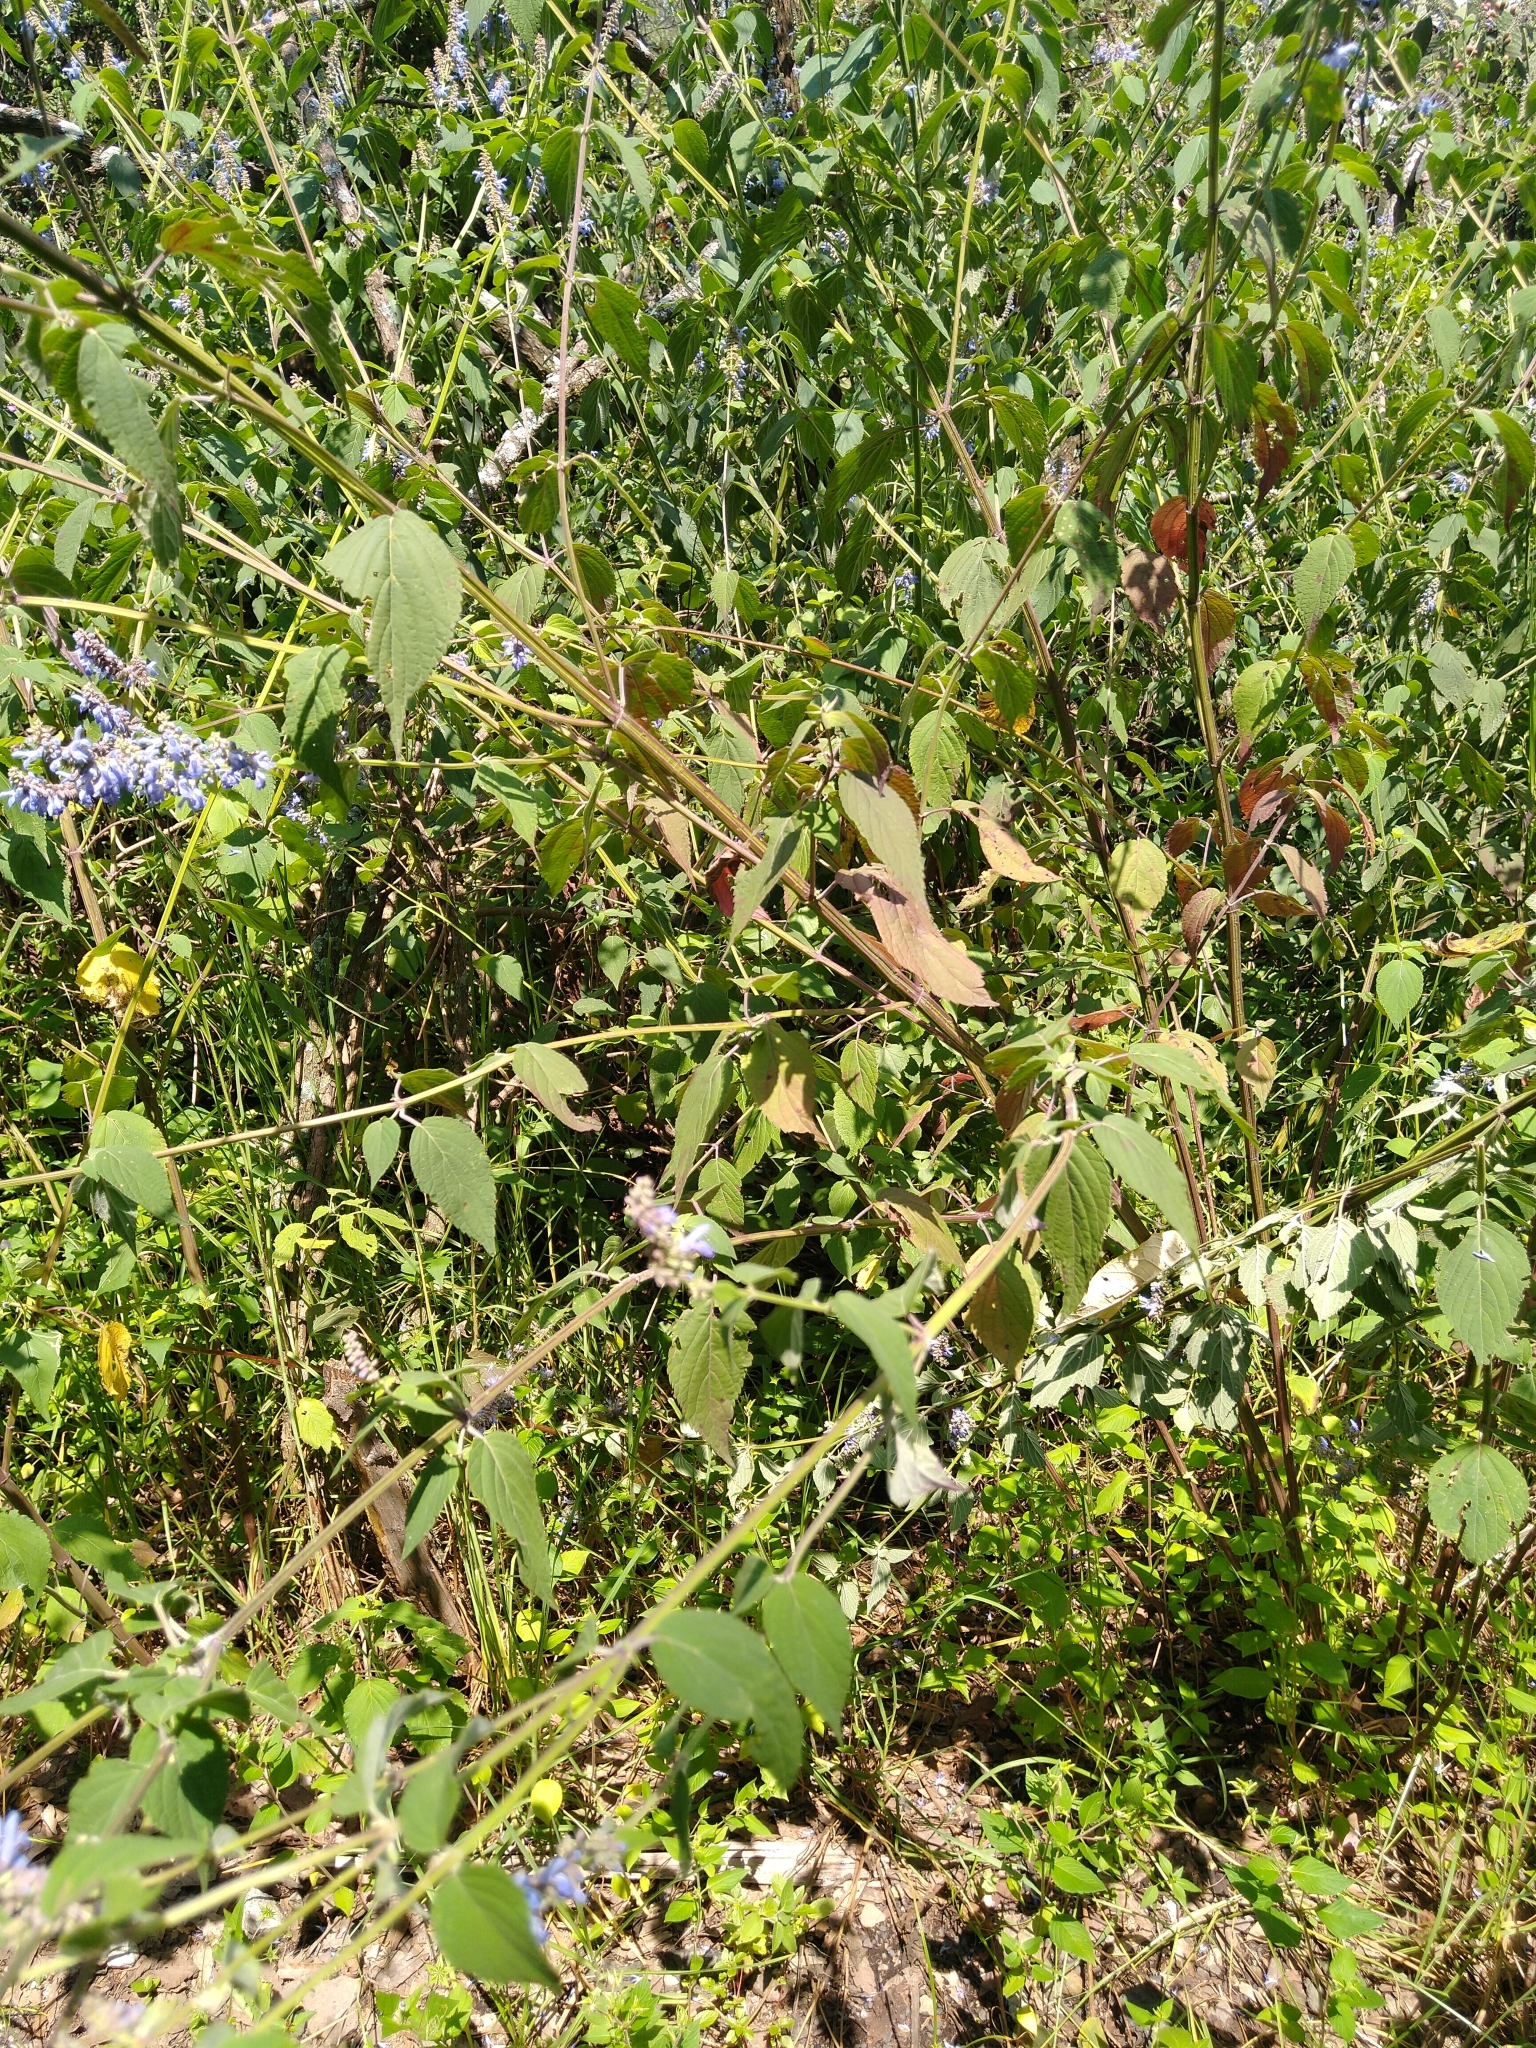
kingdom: Plantae
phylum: Tracheophyta
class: Magnoliopsida
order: Lamiales
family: Lamiaceae
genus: Salvia
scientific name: Salvia polystachia
